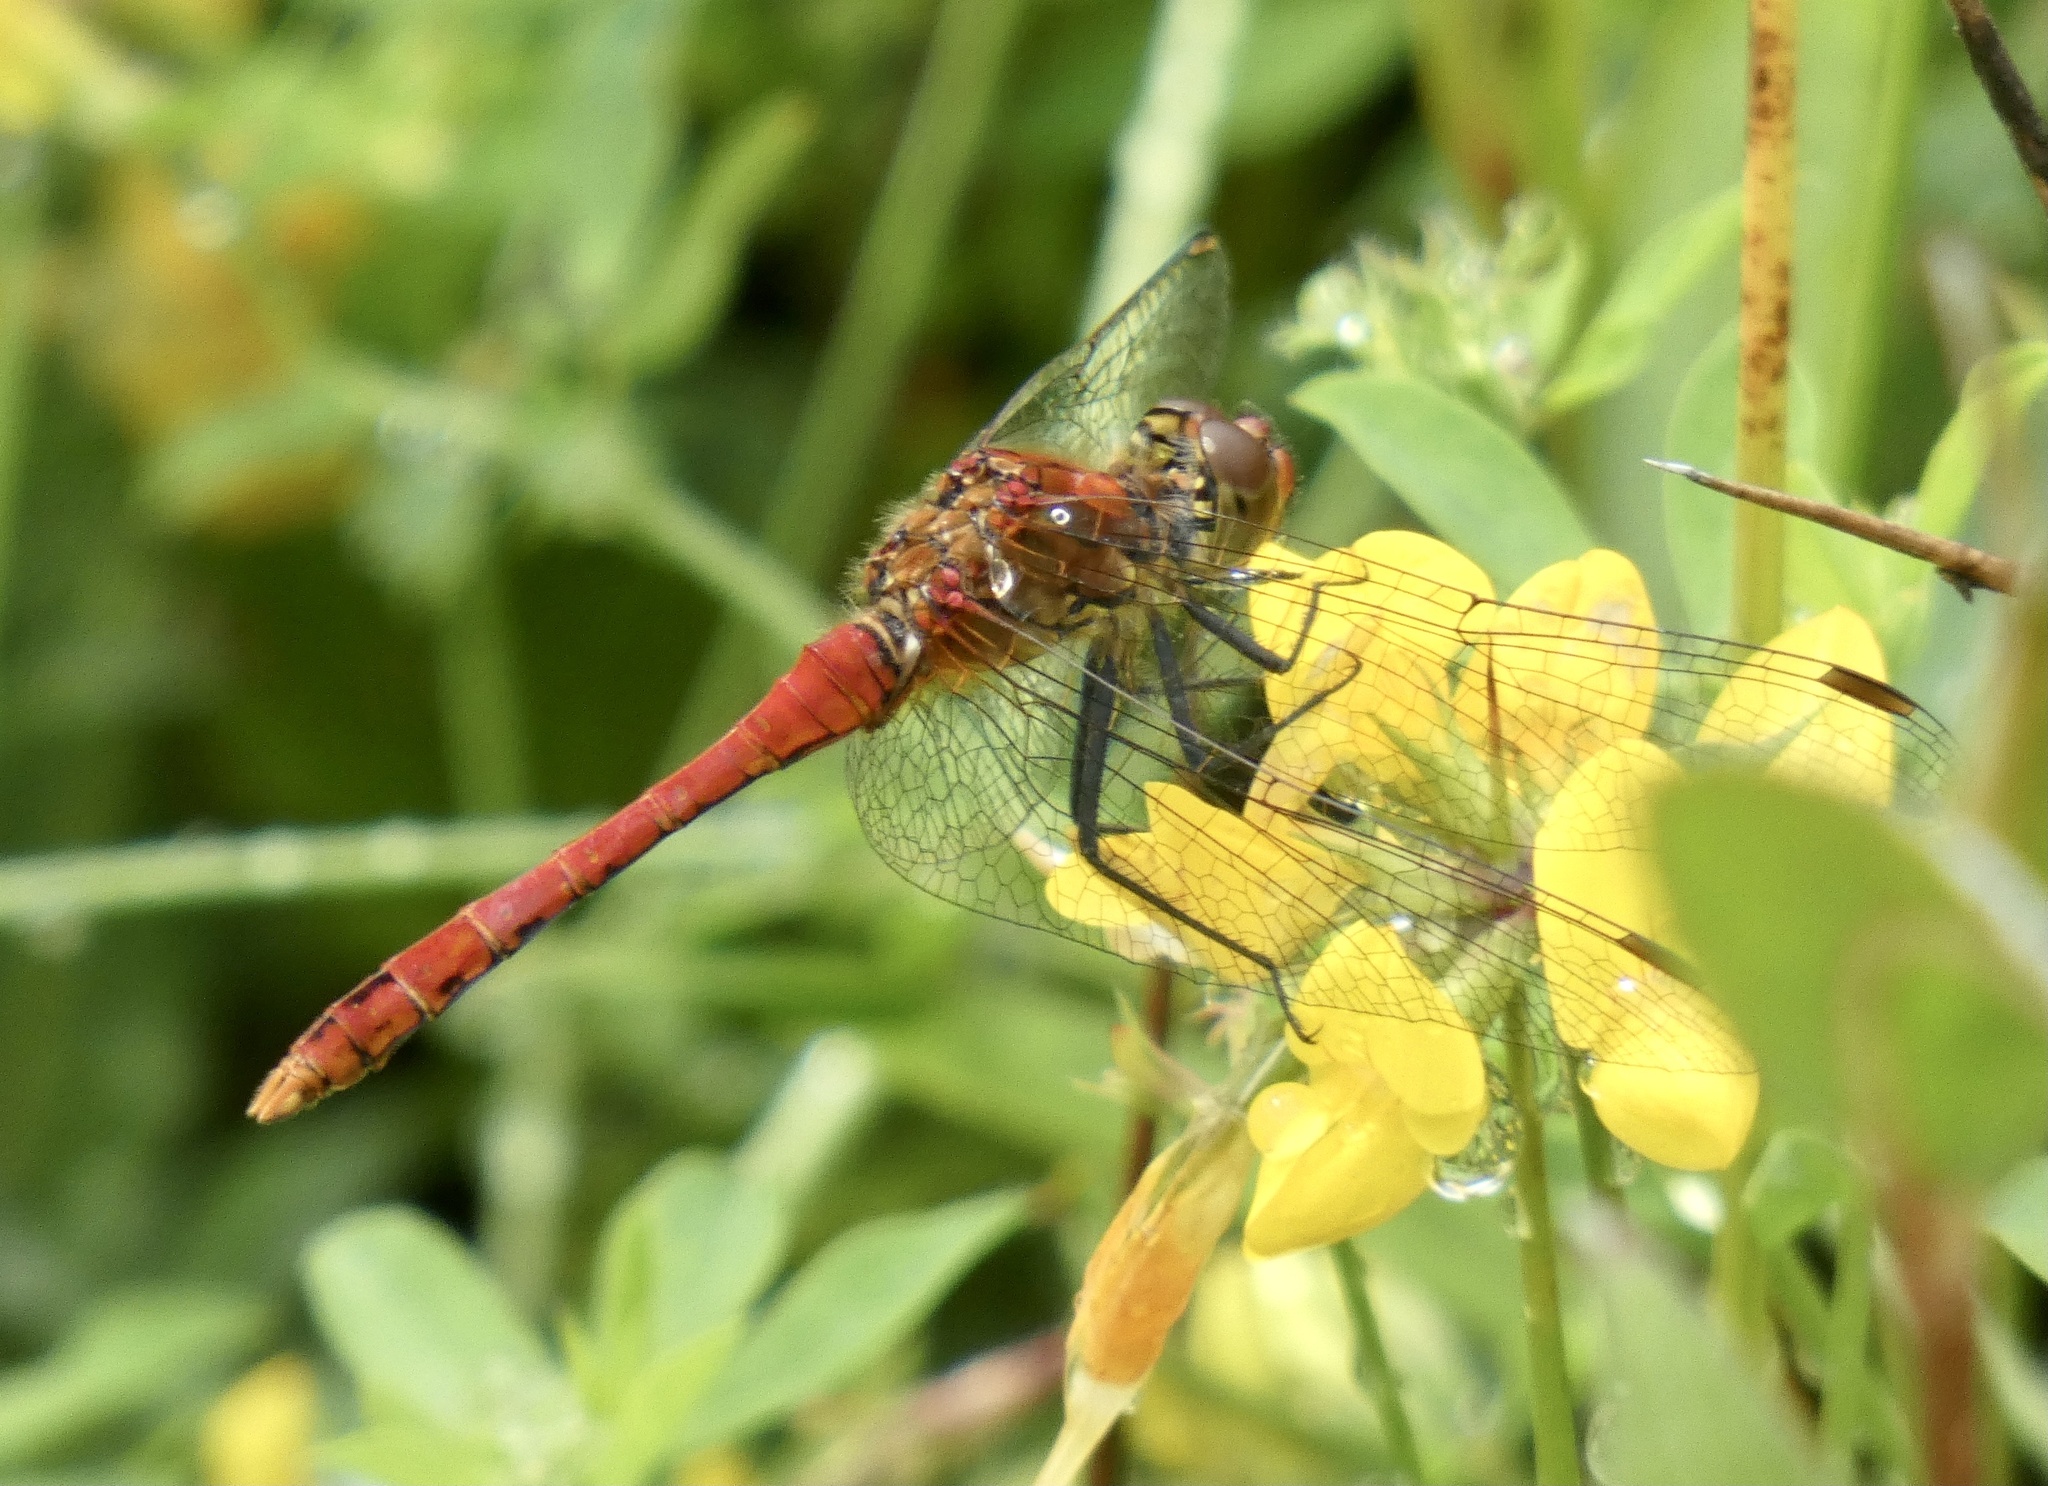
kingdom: Animalia
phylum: Arthropoda
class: Insecta
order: Odonata
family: Libellulidae
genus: Sympetrum
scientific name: Sympetrum sanguineum
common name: Ruddy darter
